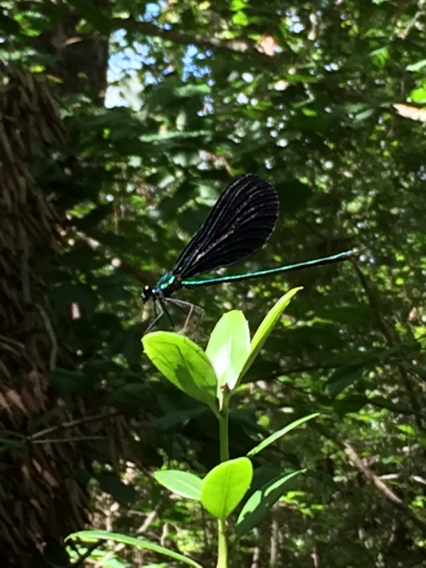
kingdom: Animalia
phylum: Arthropoda
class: Insecta
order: Odonata
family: Calopterygidae
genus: Calopteryx
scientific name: Calopteryx maculata
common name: Ebony jewelwing
